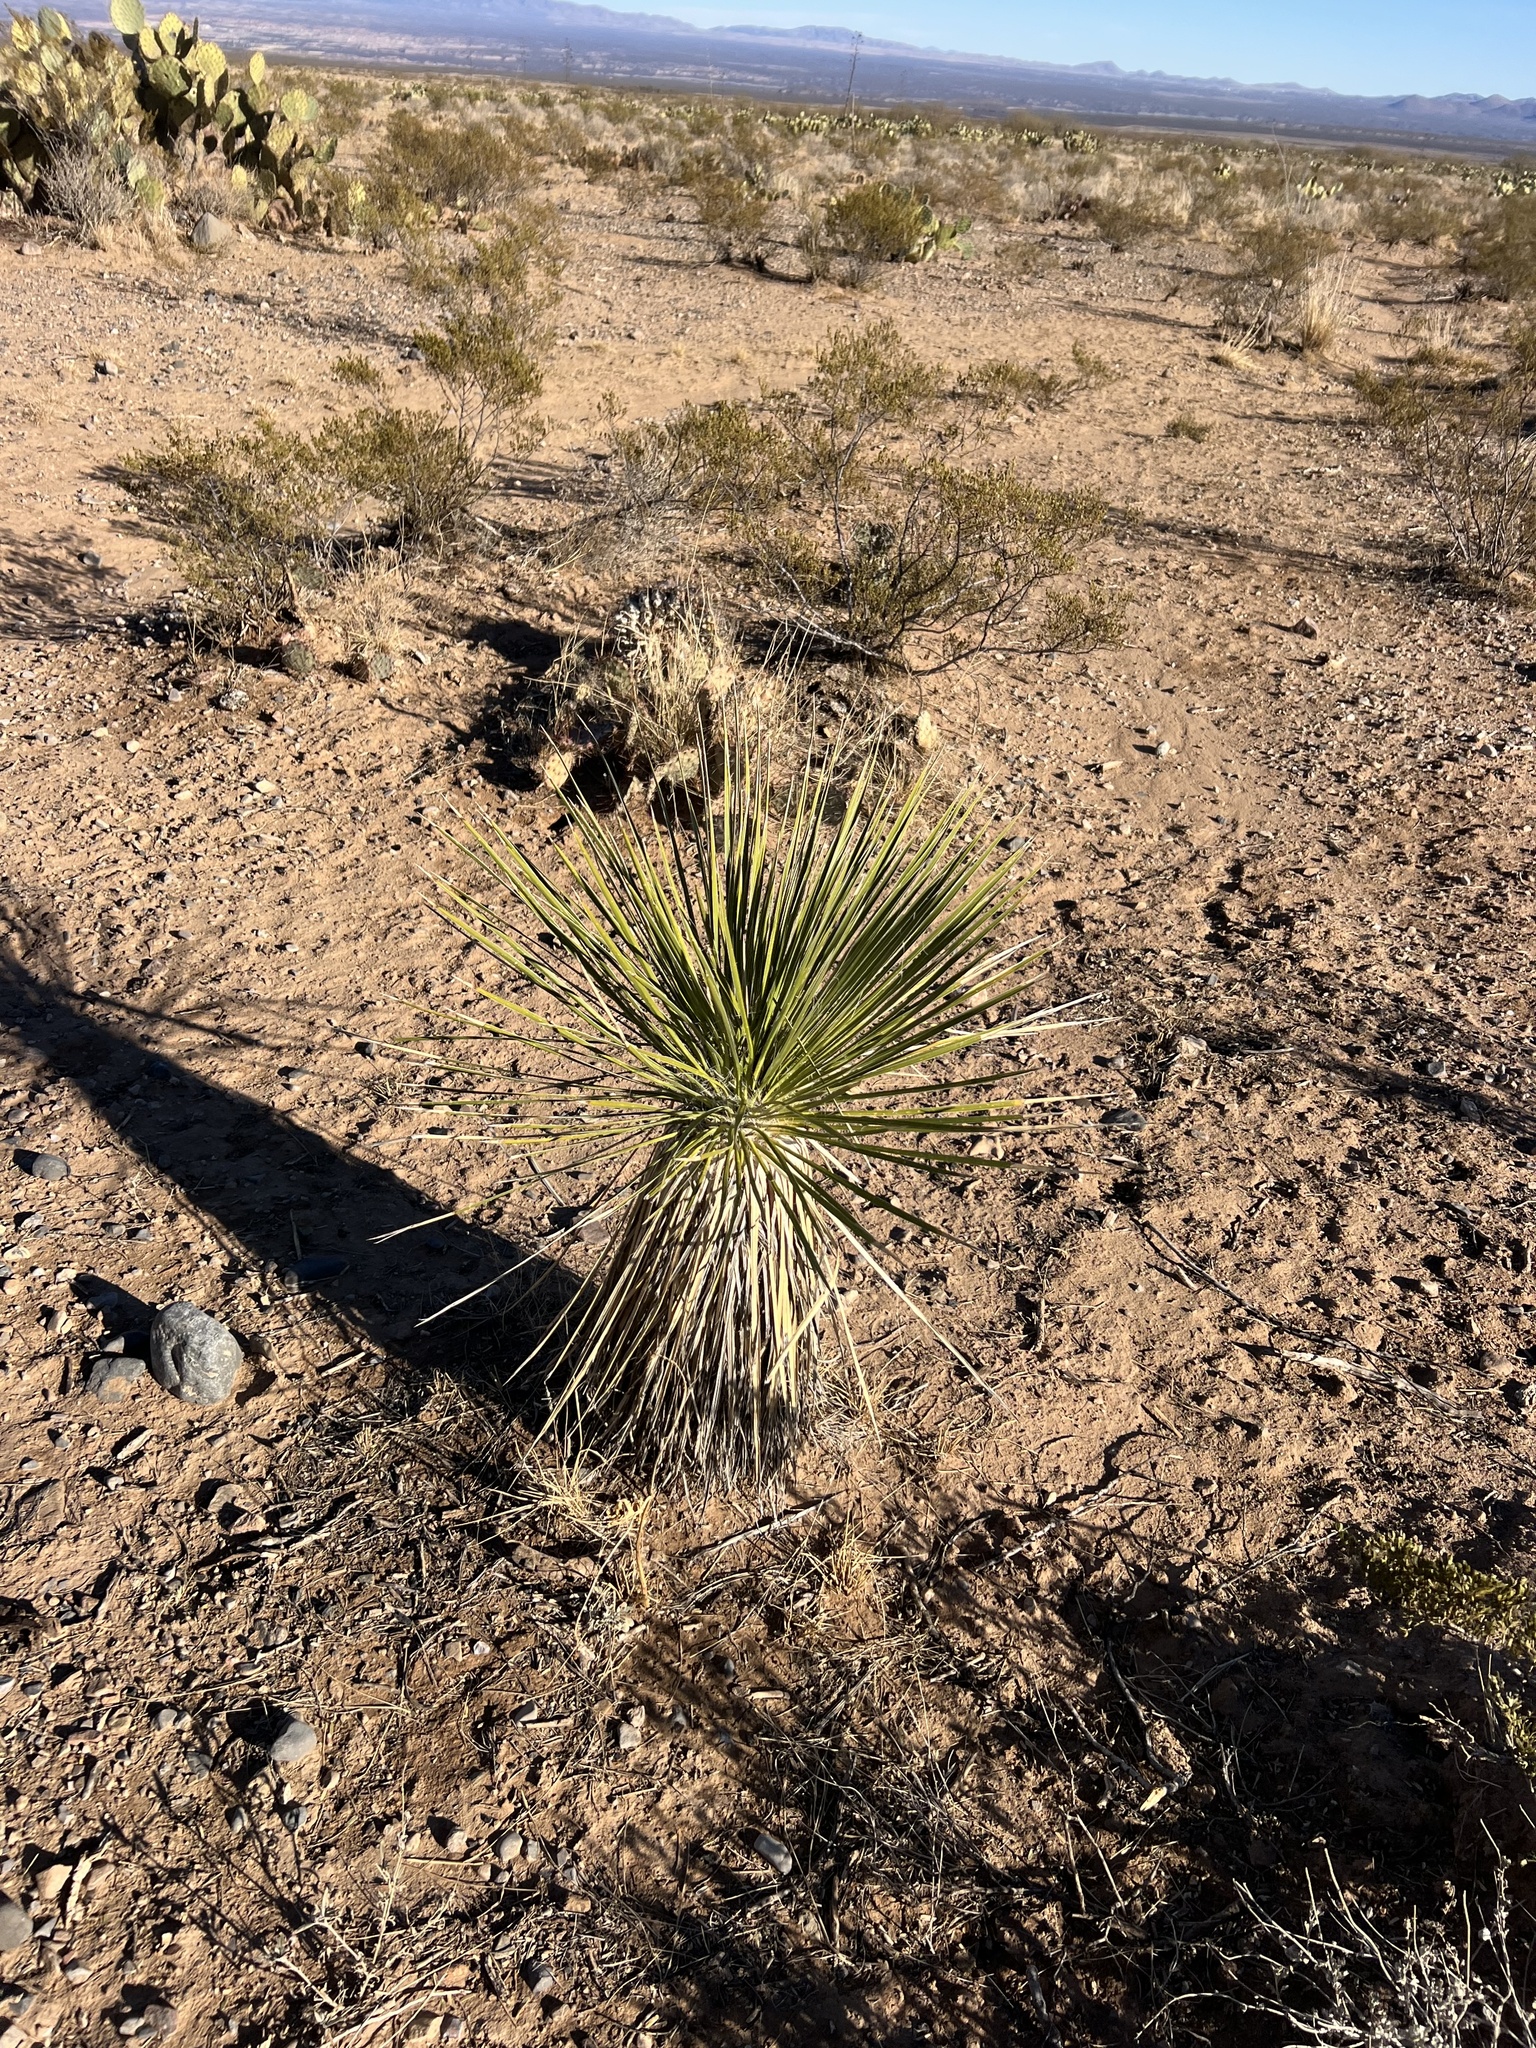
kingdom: Plantae
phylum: Tracheophyta
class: Liliopsida
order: Asparagales
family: Asparagaceae
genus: Yucca
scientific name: Yucca elata
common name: Palmella
